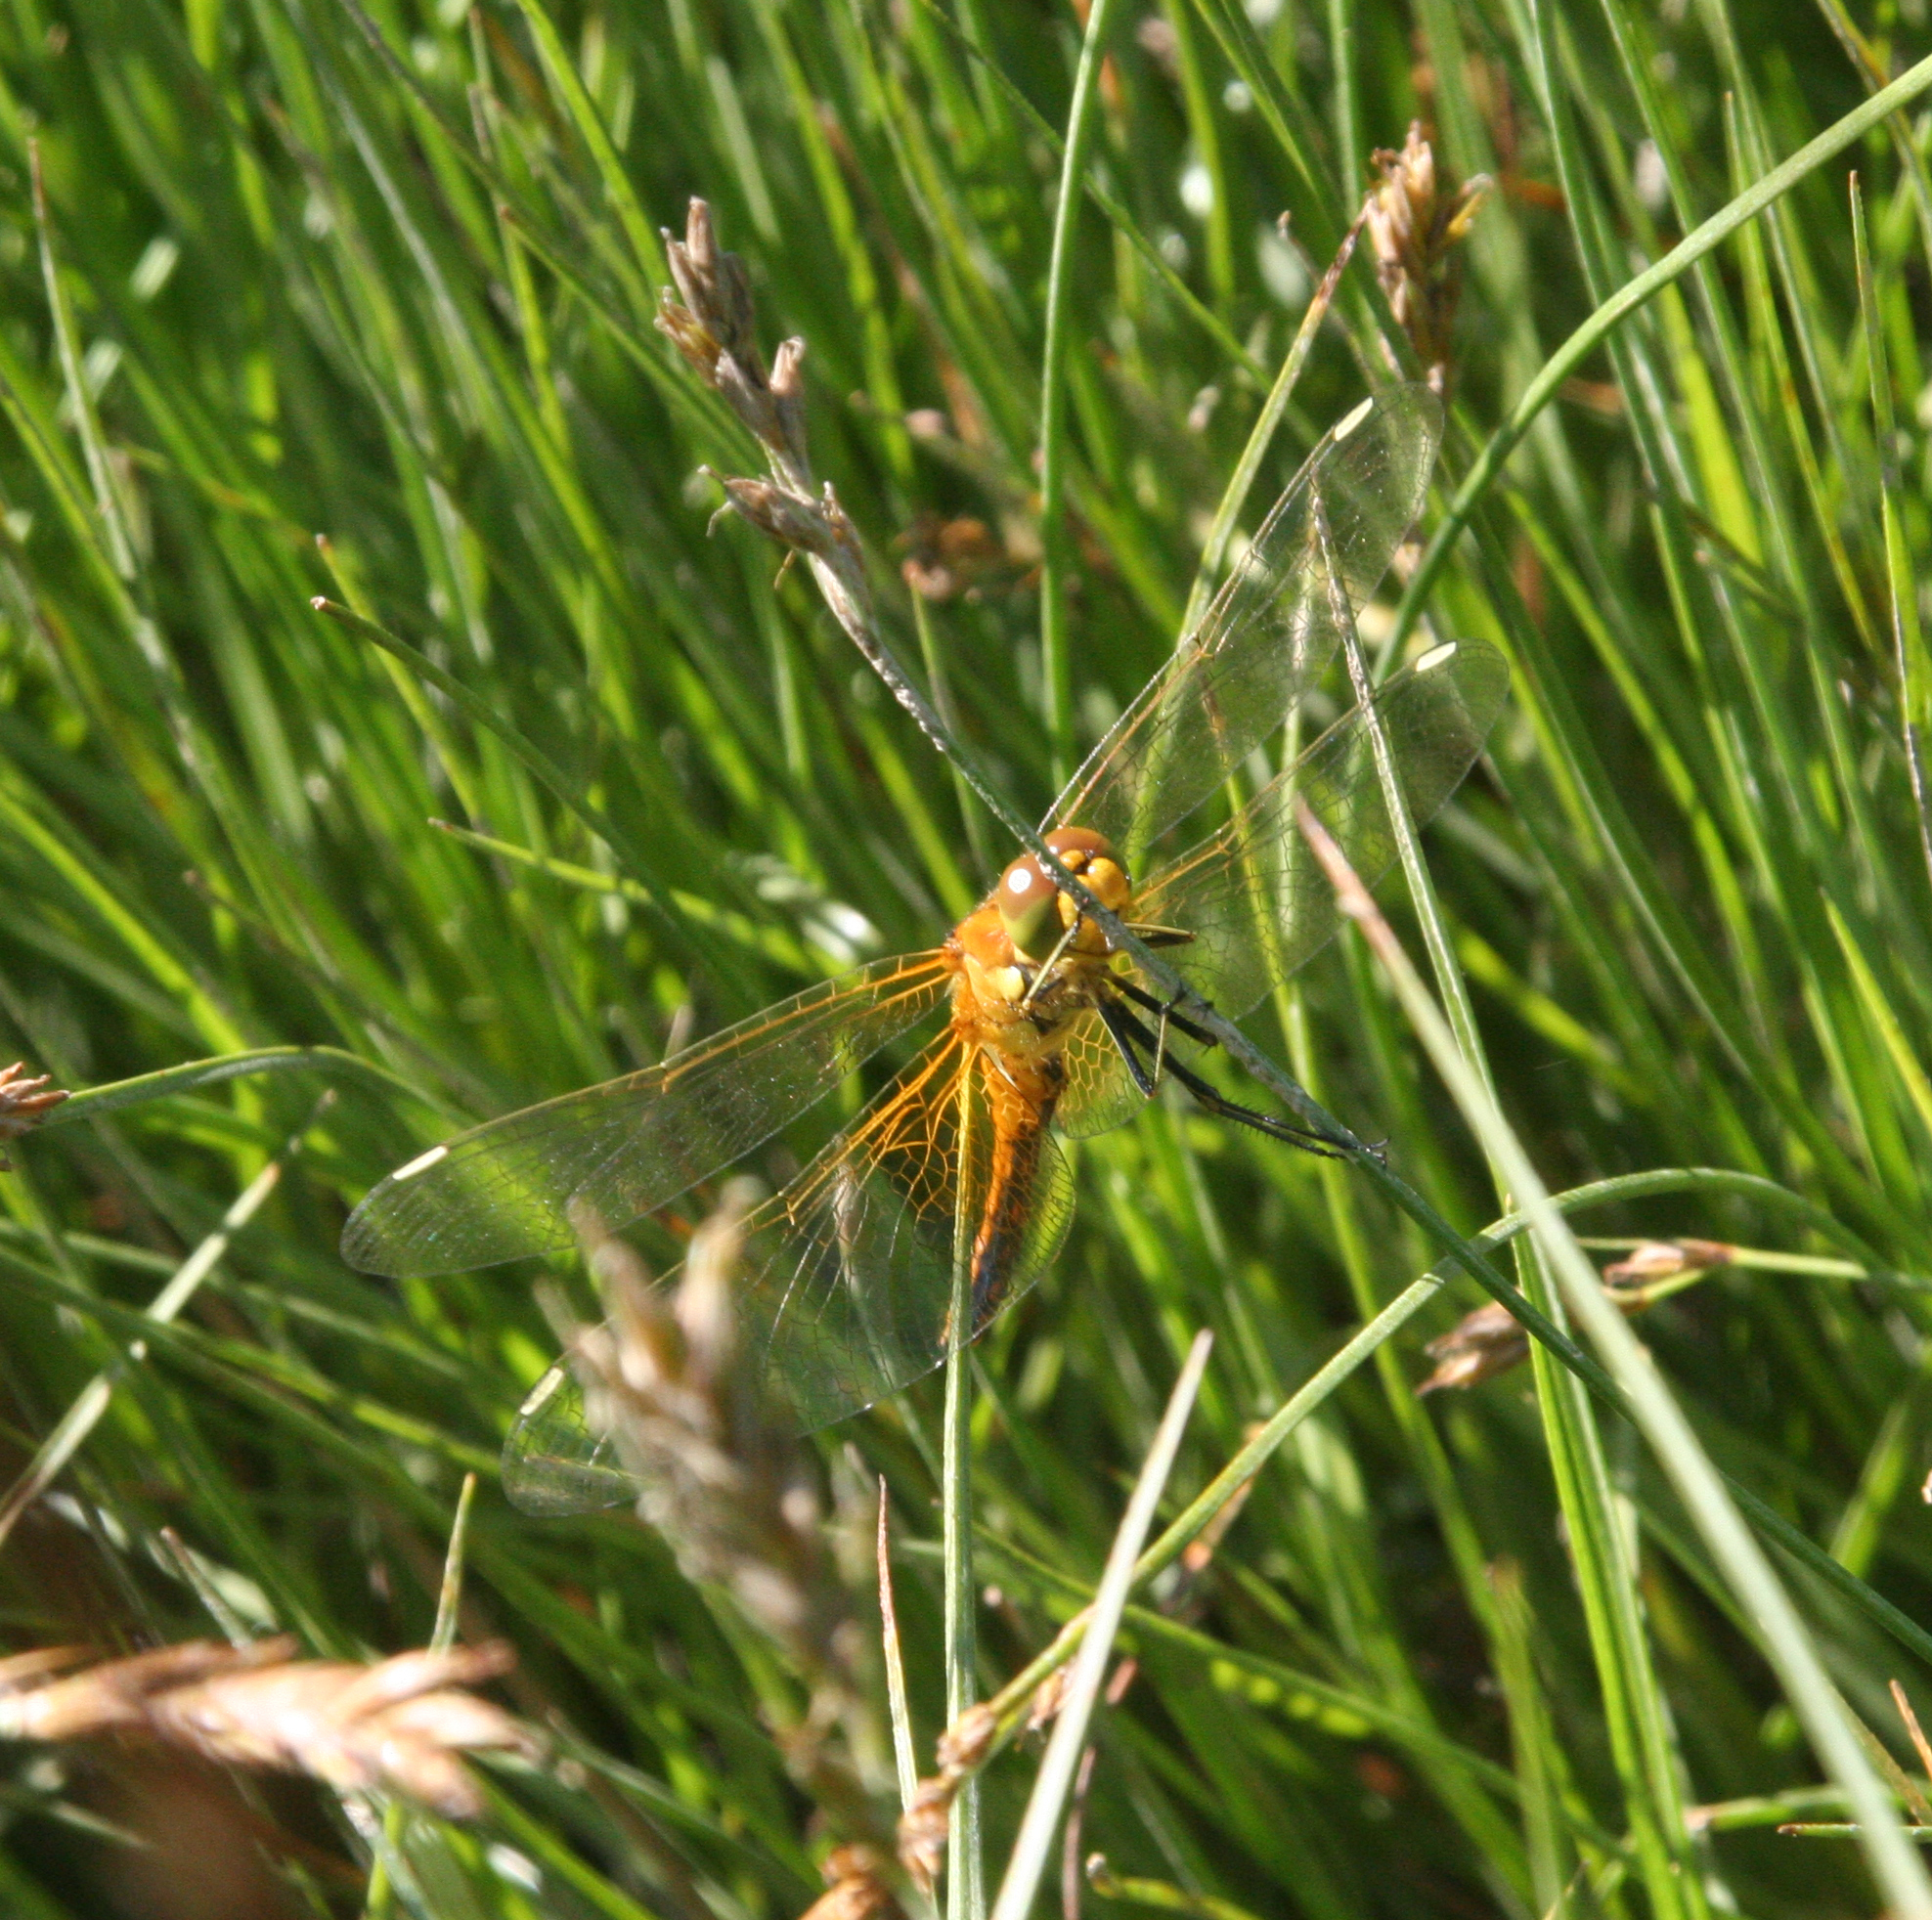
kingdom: Animalia
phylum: Arthropoda
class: Insecta
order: Odonata
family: Libellulidae
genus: Sympetrum
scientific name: Sympetrum flaveolum
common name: Yellow-winged darter
